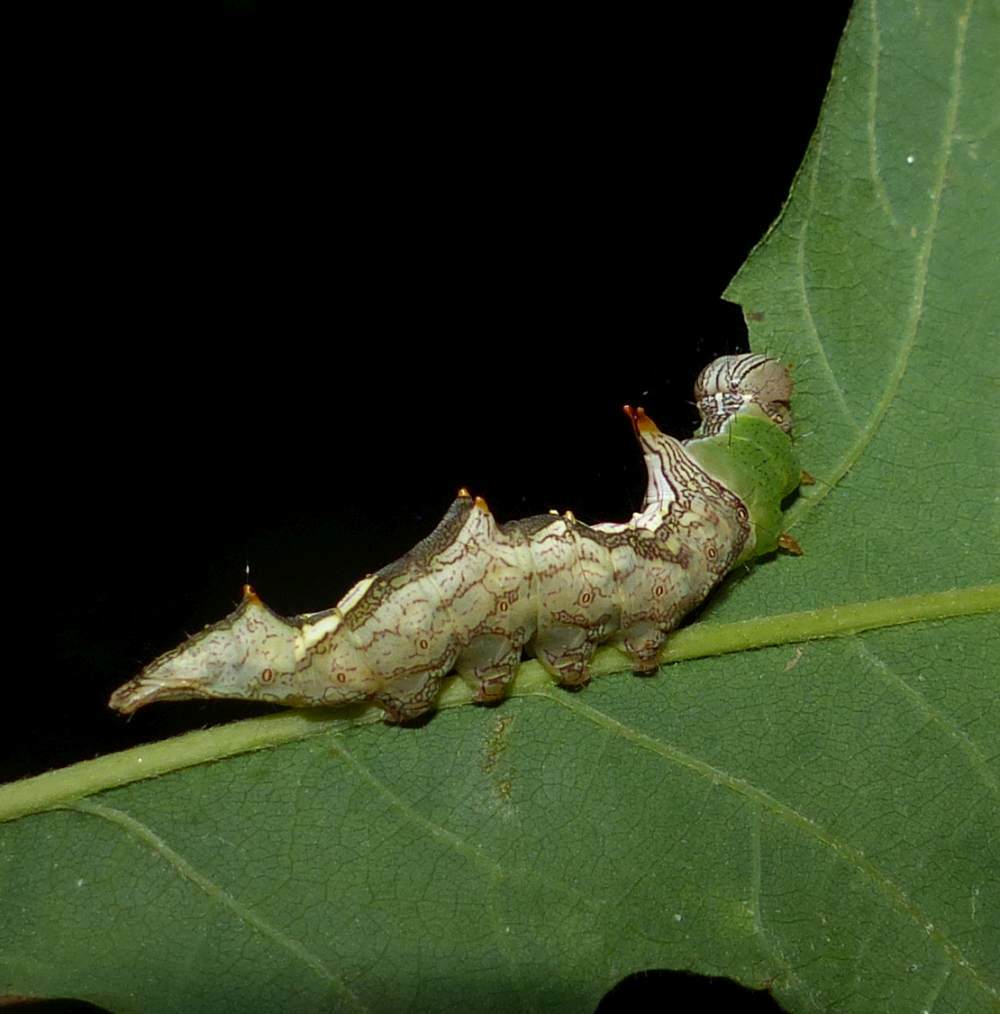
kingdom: Animalia
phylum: Arthropoda
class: Insecta
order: Lepidoptera
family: Notodontidae
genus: Schizura
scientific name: Schizura ipomaeae
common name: Morning-glory prominent
